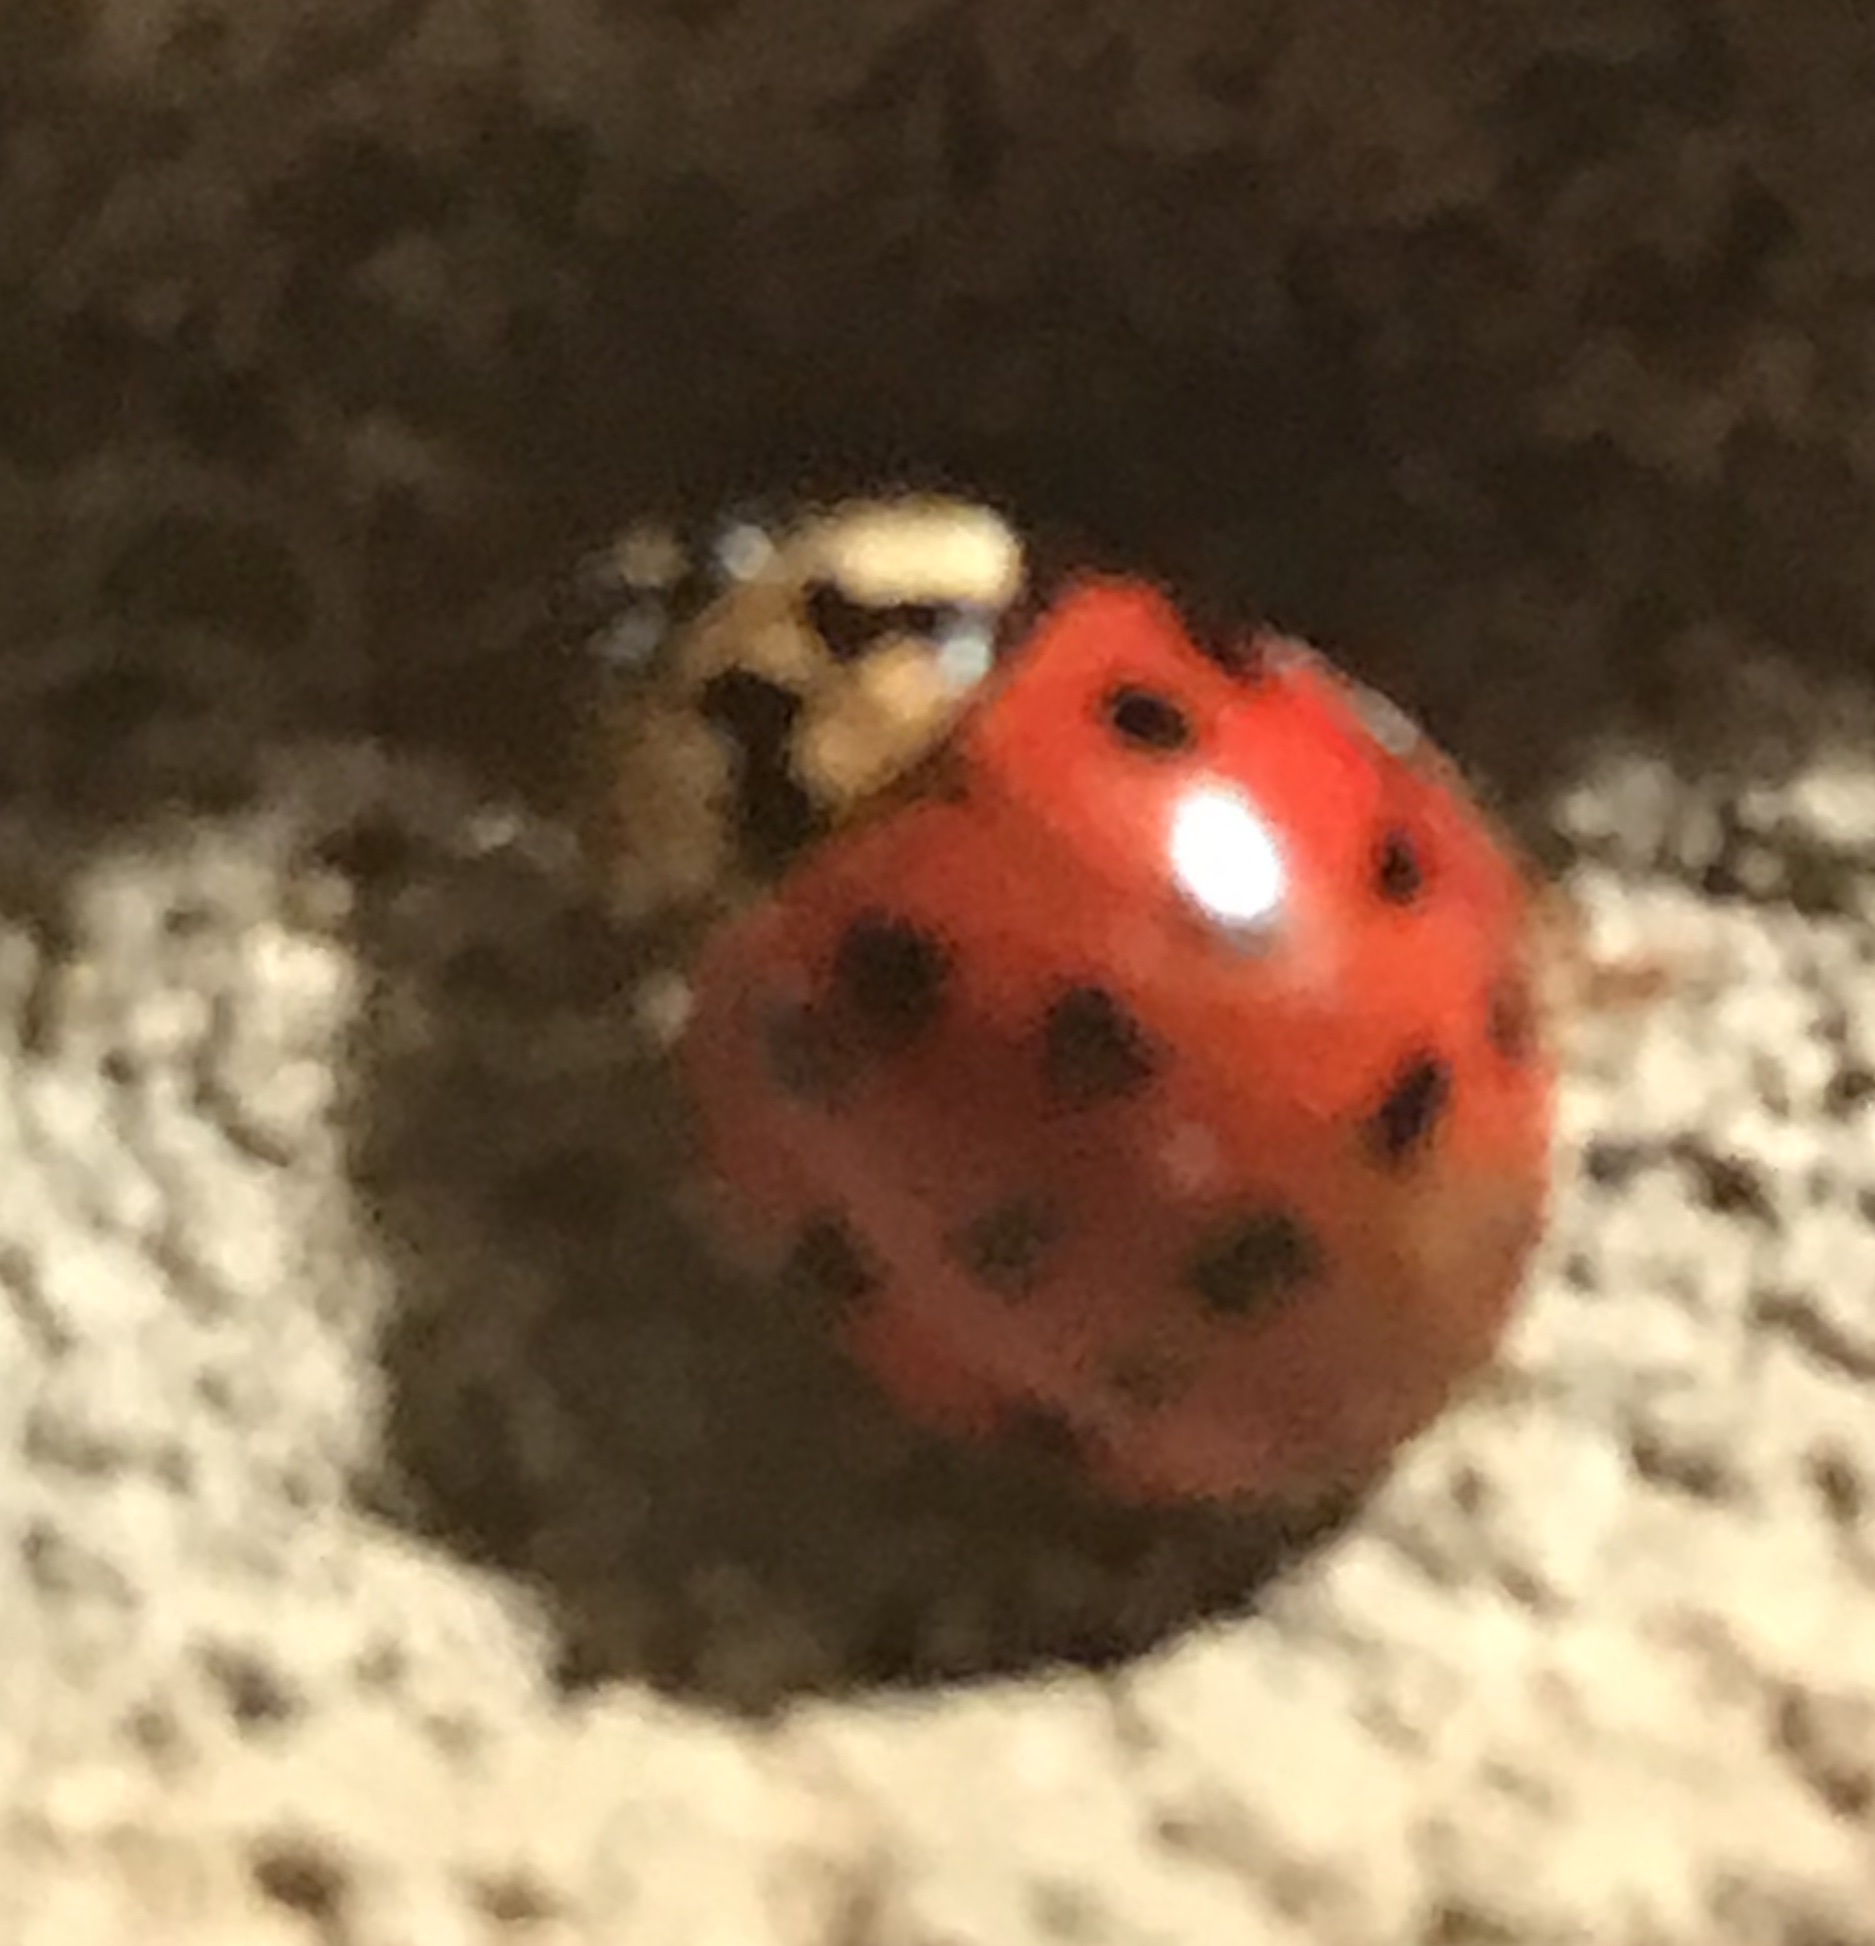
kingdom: Animalia
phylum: Arthropoda
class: Insecta
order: Coleoptera
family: Coccinellidae
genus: Harmonia
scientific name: Harmonia axyridis
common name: Harlequin ladybird
